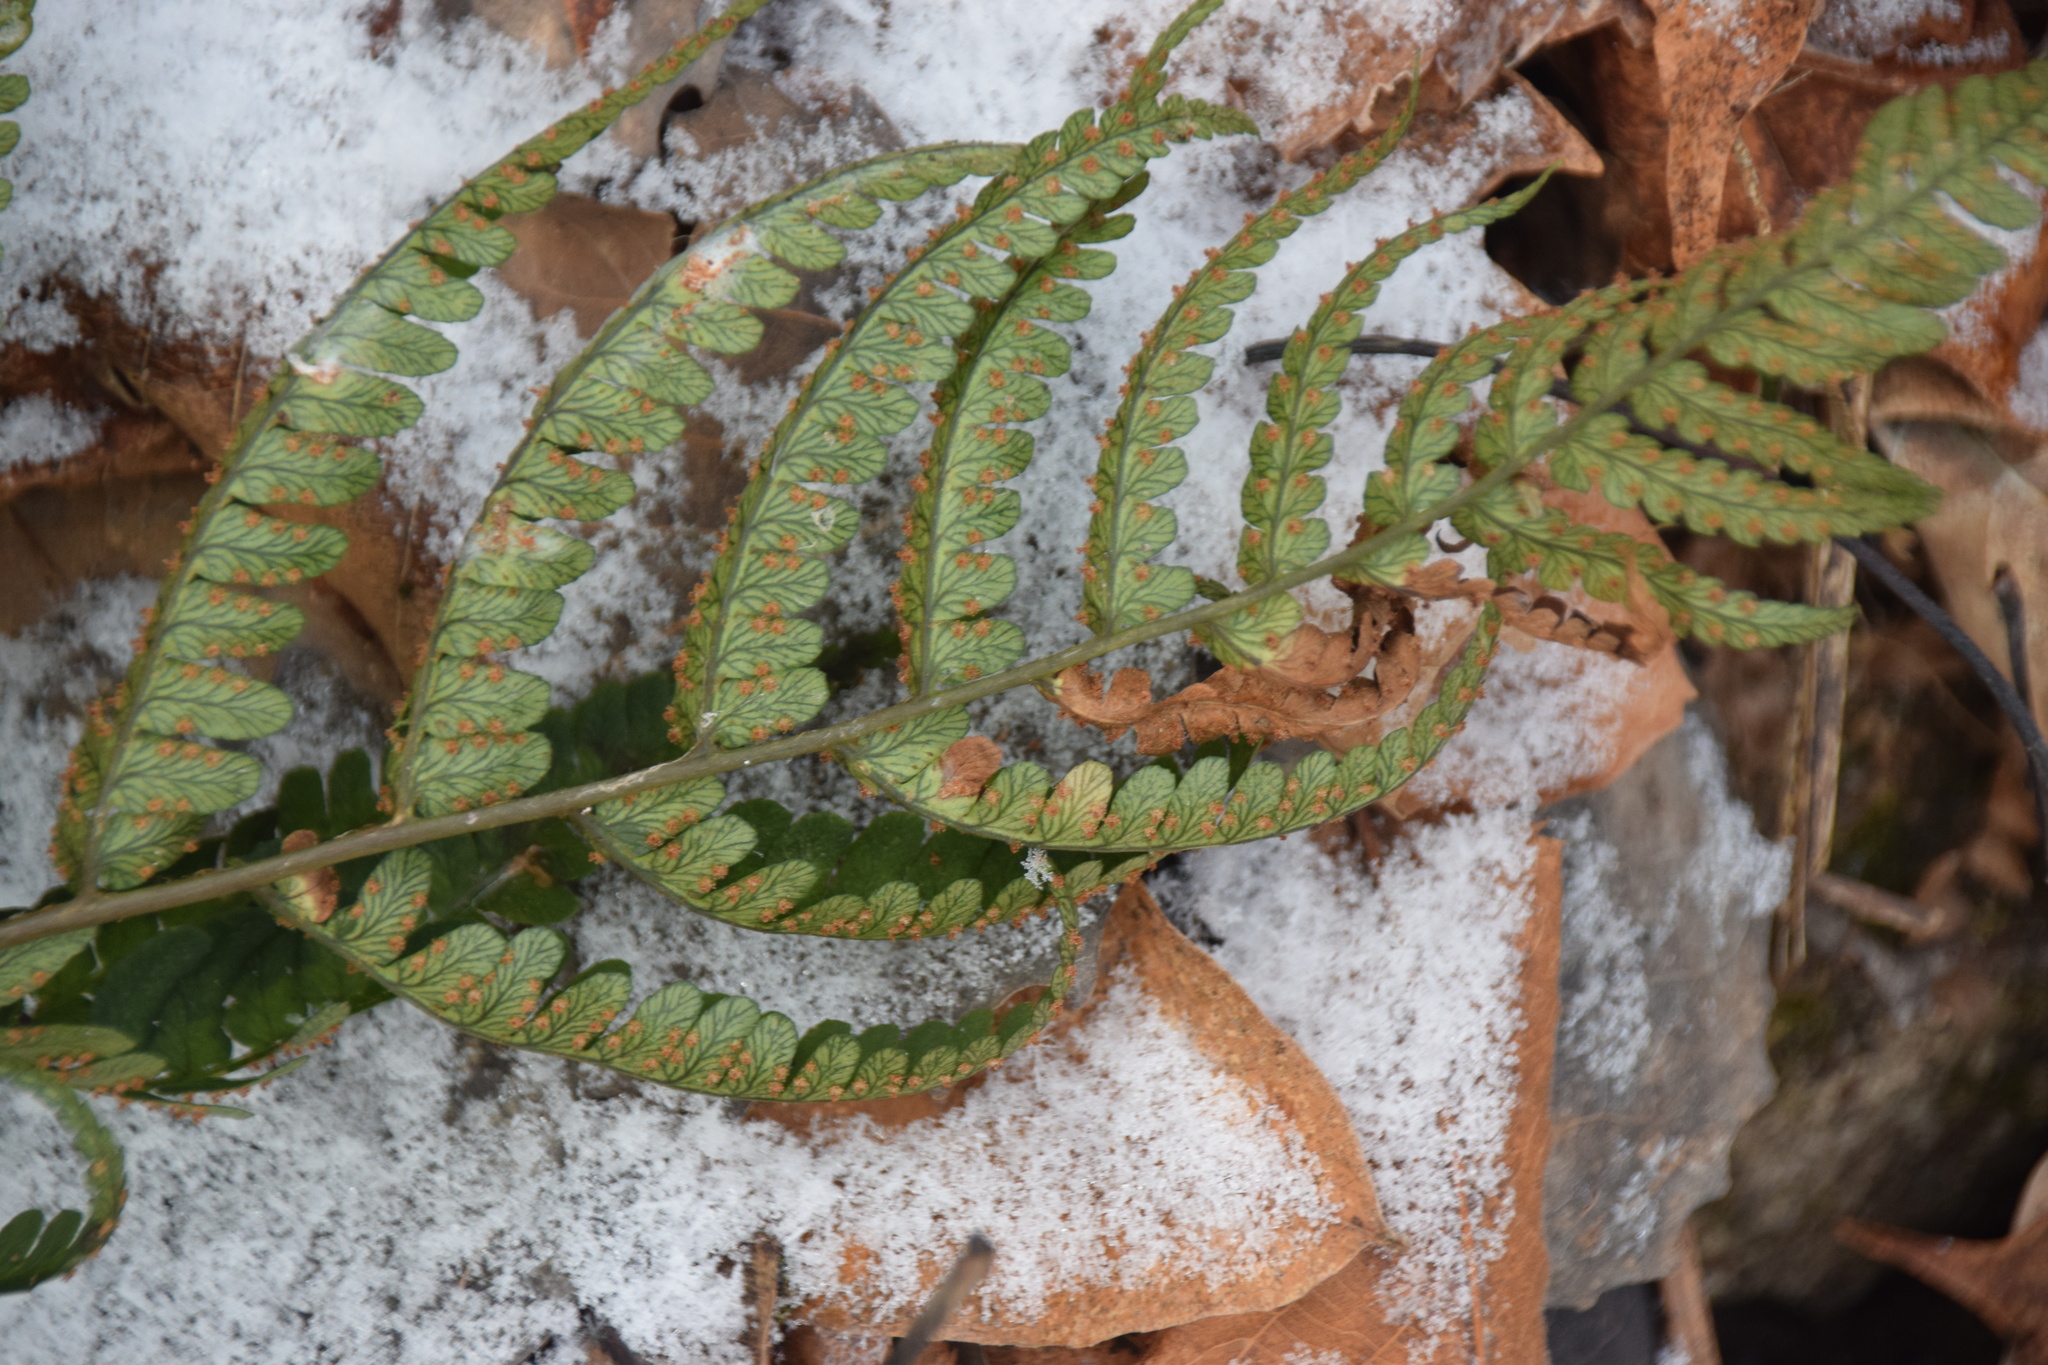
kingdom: Plantae
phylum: Tracheophyta
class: Polypodiopsida
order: Polypodiales
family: Dryopteridaceae
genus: Dryopteris
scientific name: Dryopteris marginalis
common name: Marginal wood fern
